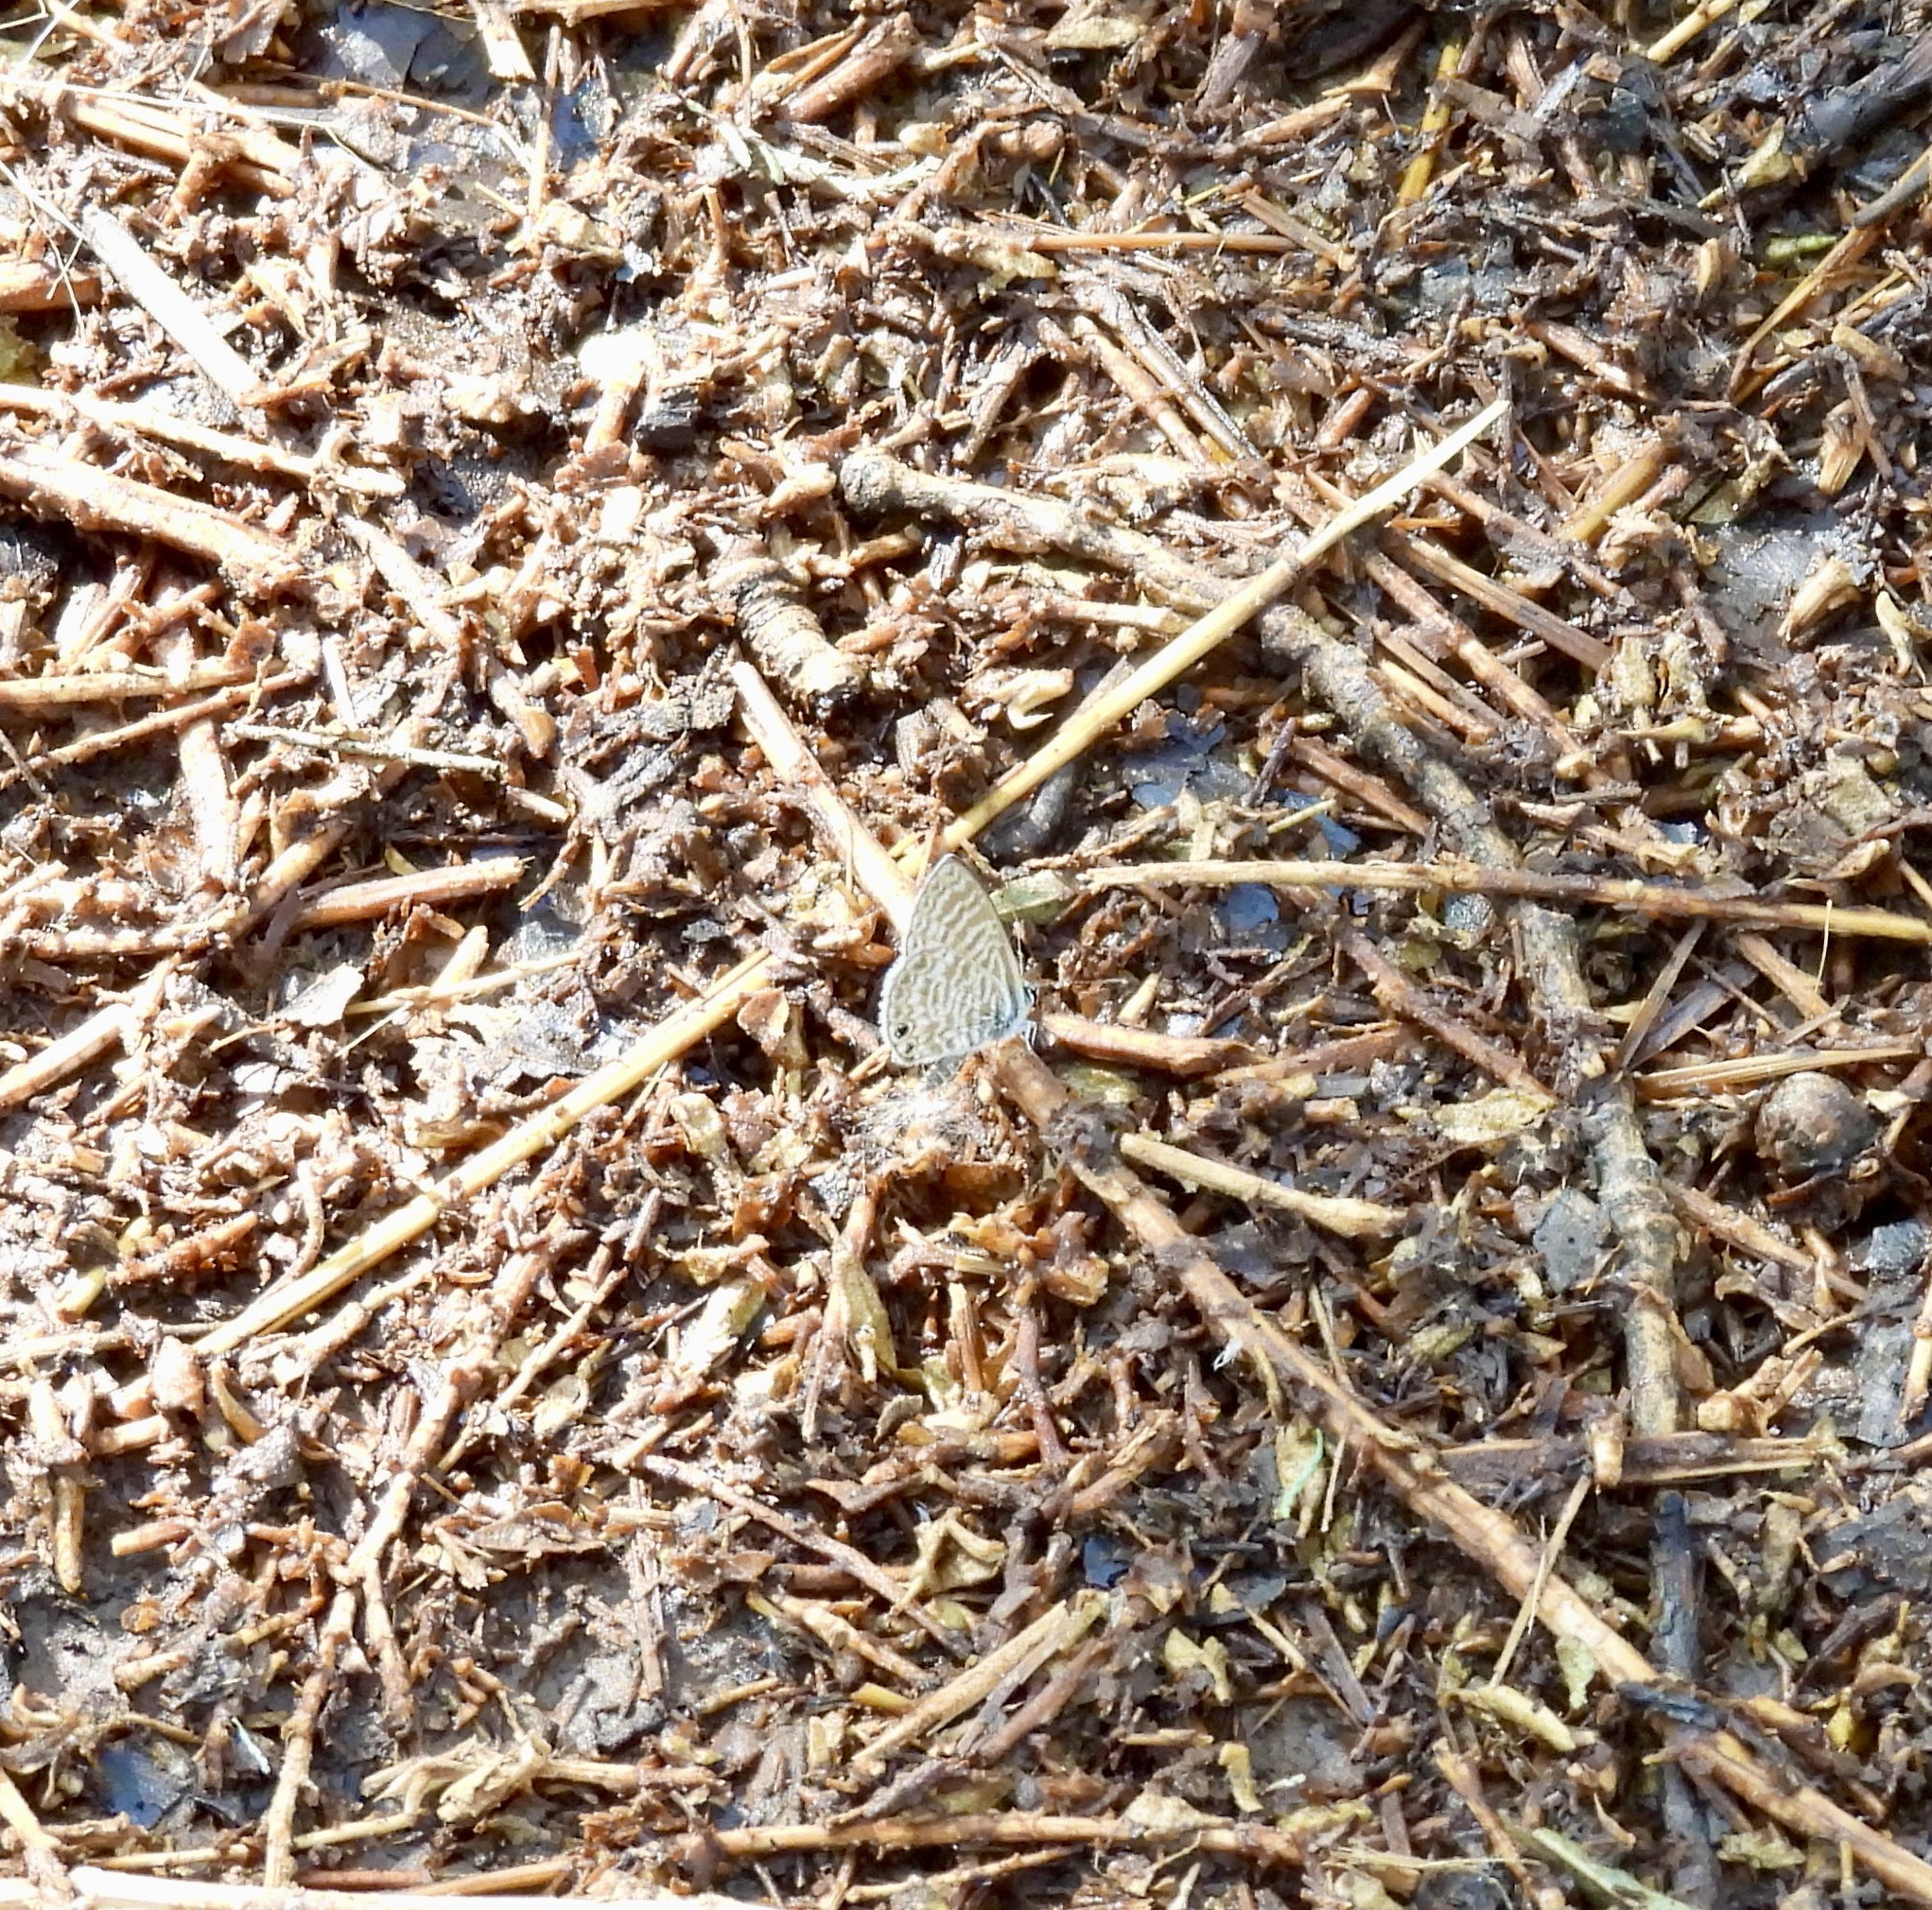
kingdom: Animalia
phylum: Arthropoda
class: Insecta
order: Lepidoptera
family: Lycaenidae
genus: Leptotes
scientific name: Leptotes marina
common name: Marine blue
